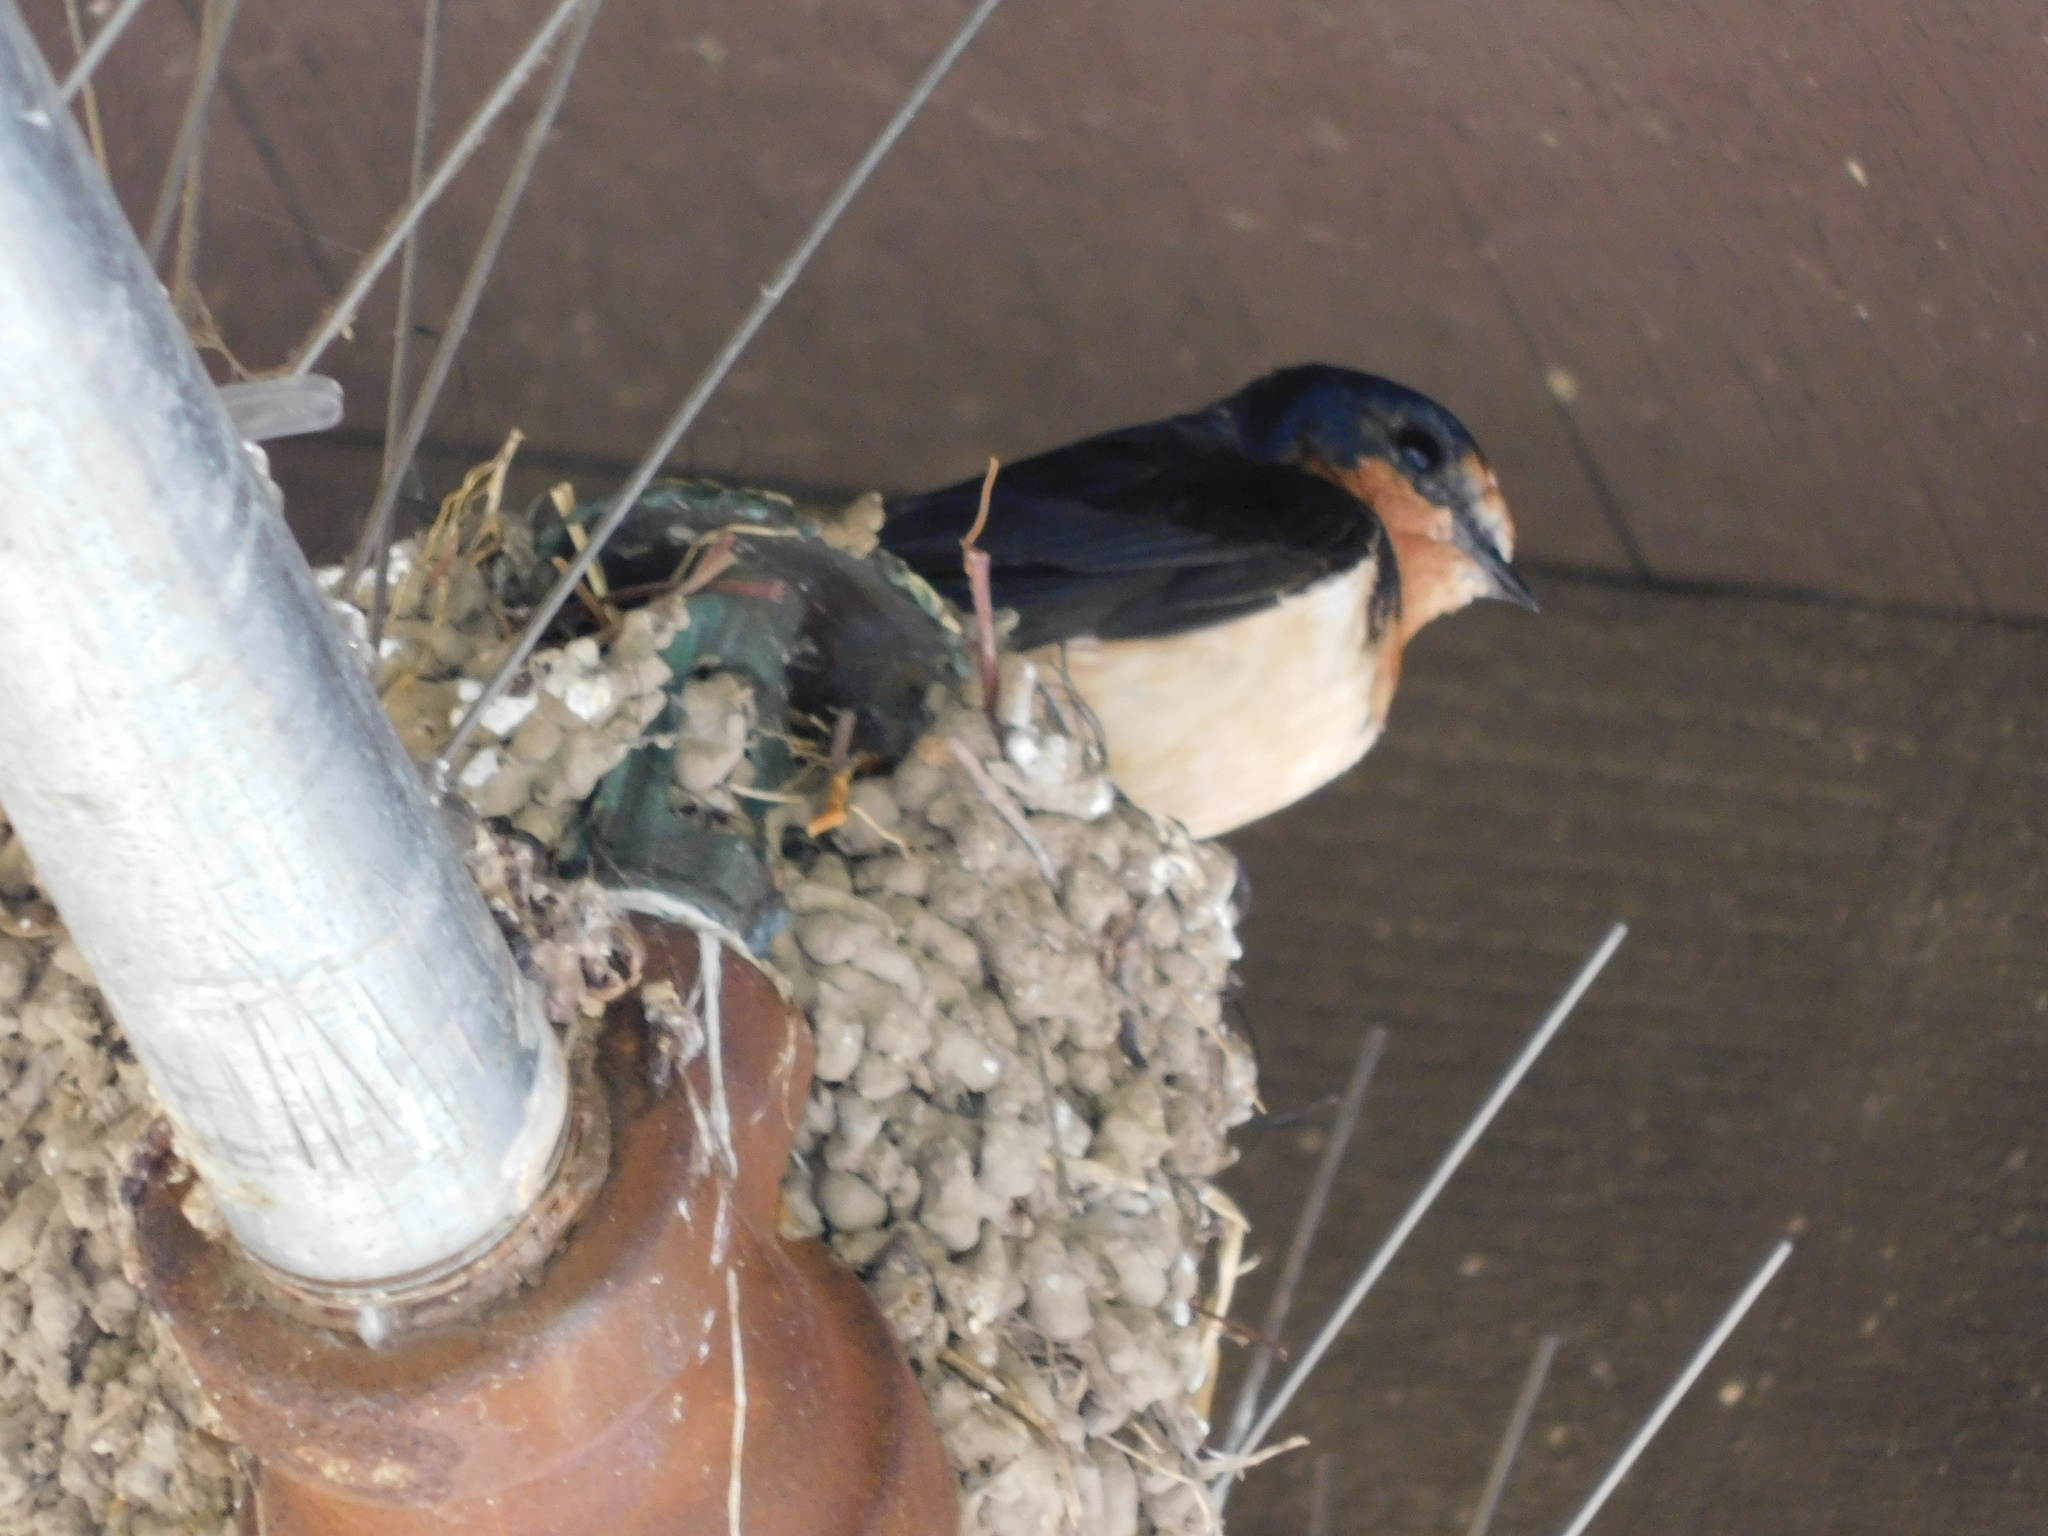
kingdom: Animalia
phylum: Chordata
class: Aves
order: Passeriformes
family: Hirundinidae
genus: Hirundo
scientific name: Hirundo rustica
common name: Barn swallow
